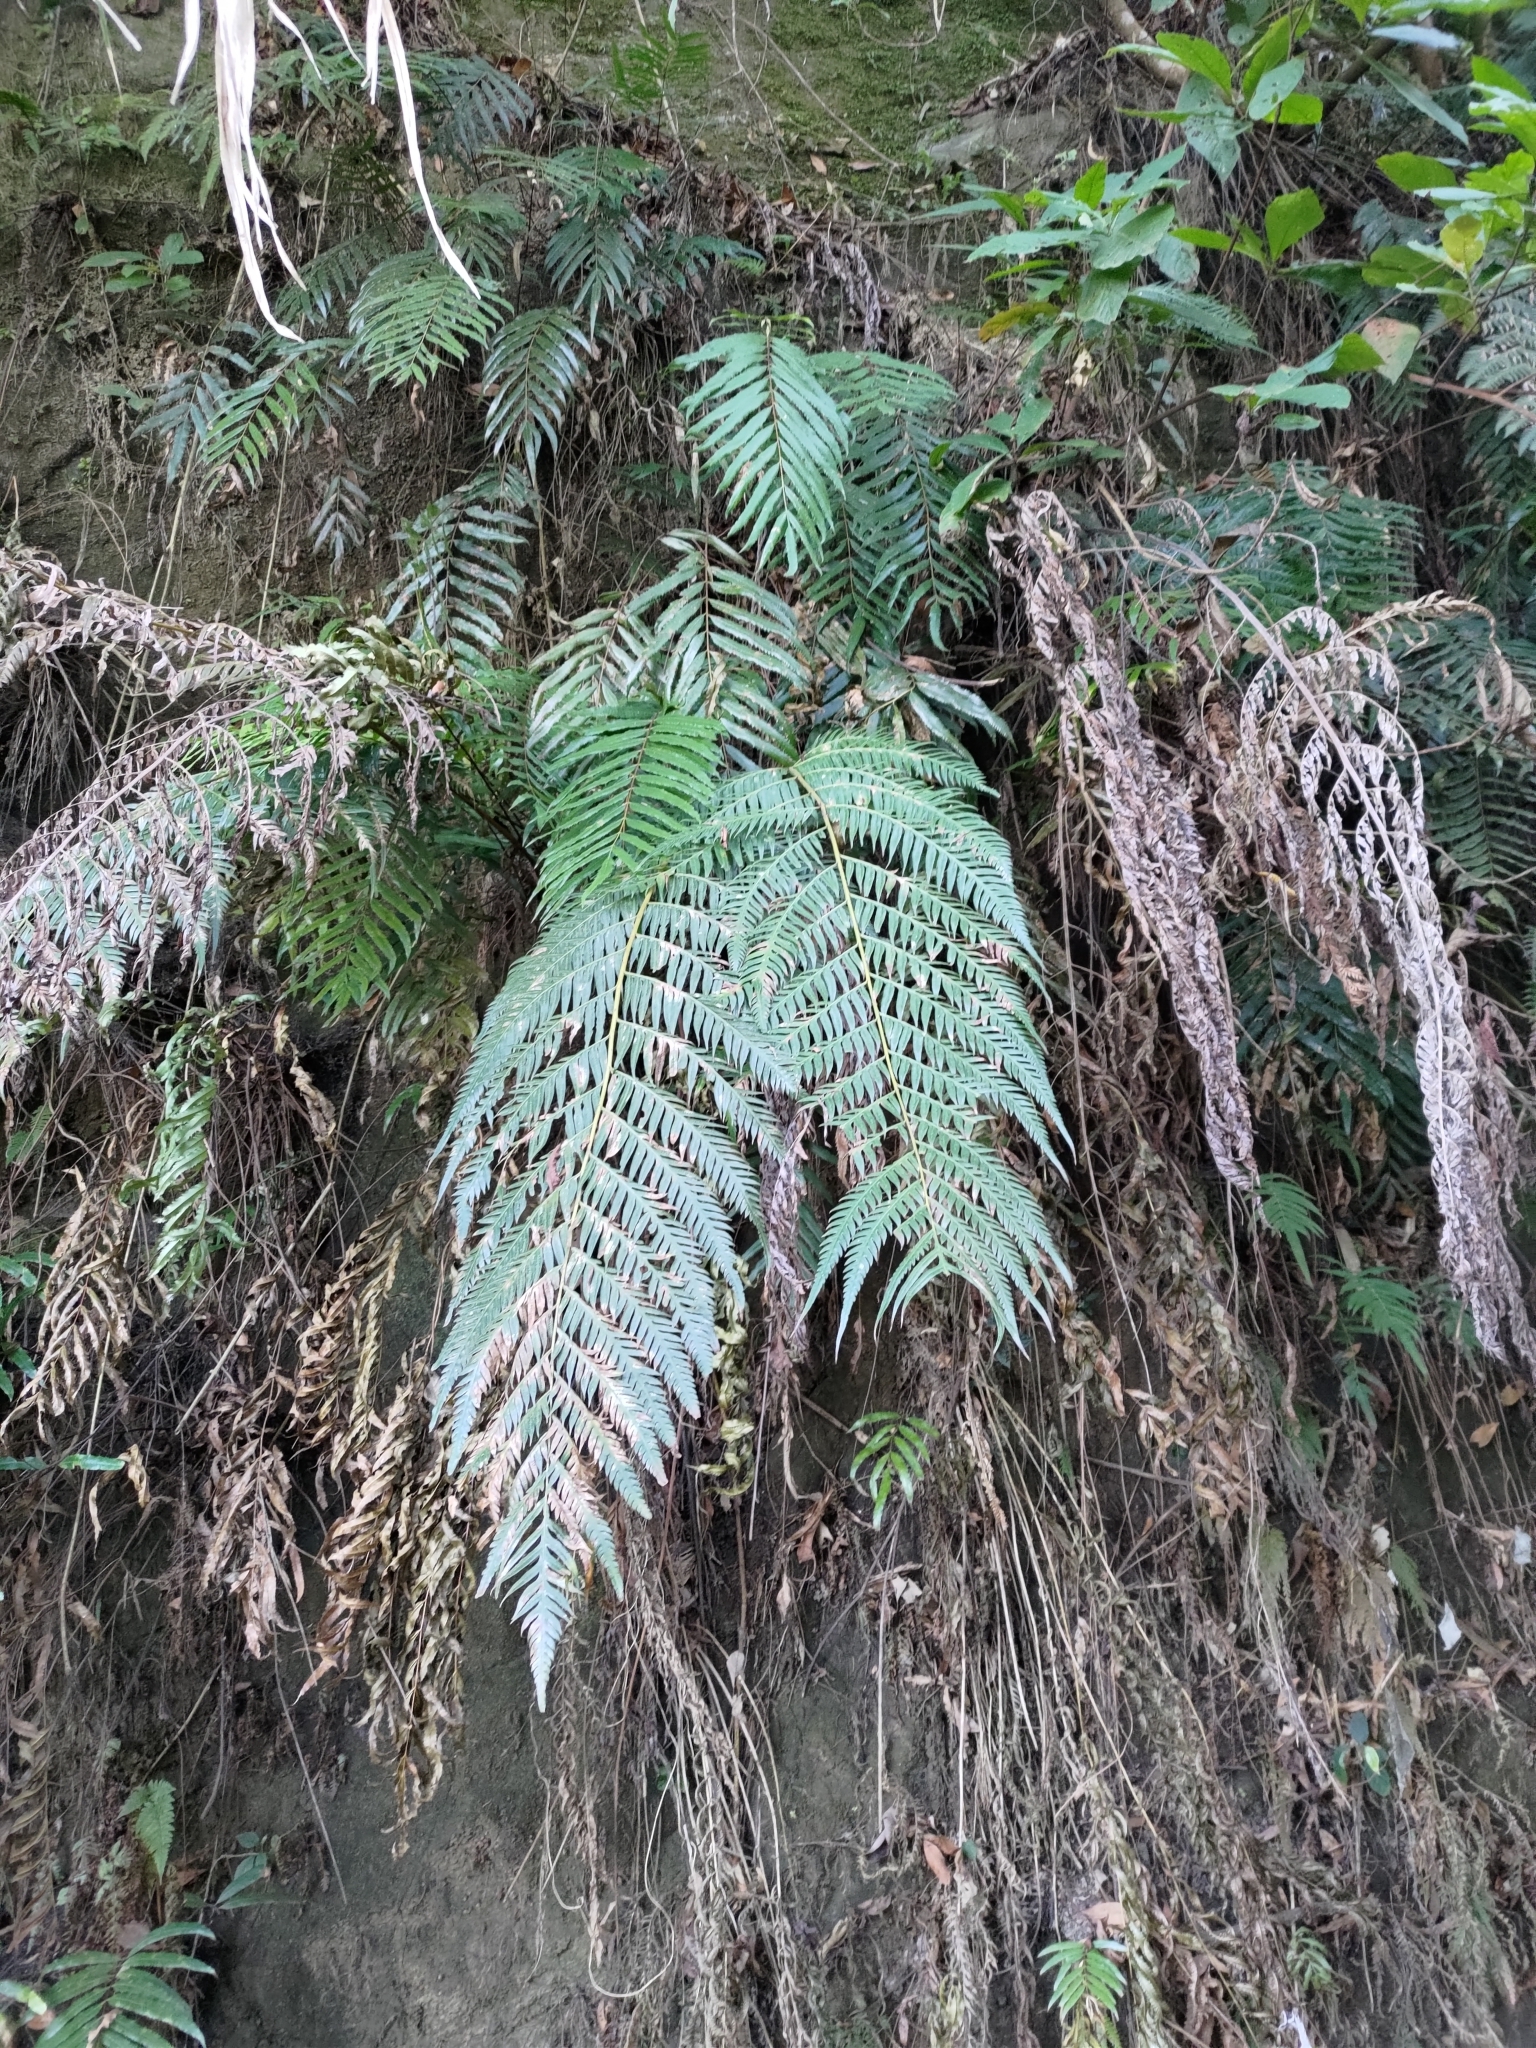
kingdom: Plantae
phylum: Tracheophyta
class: Polypodiopsida
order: Polypodiales
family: Blechnaceae
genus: Woodwardia
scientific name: Woodwardia prolifera
